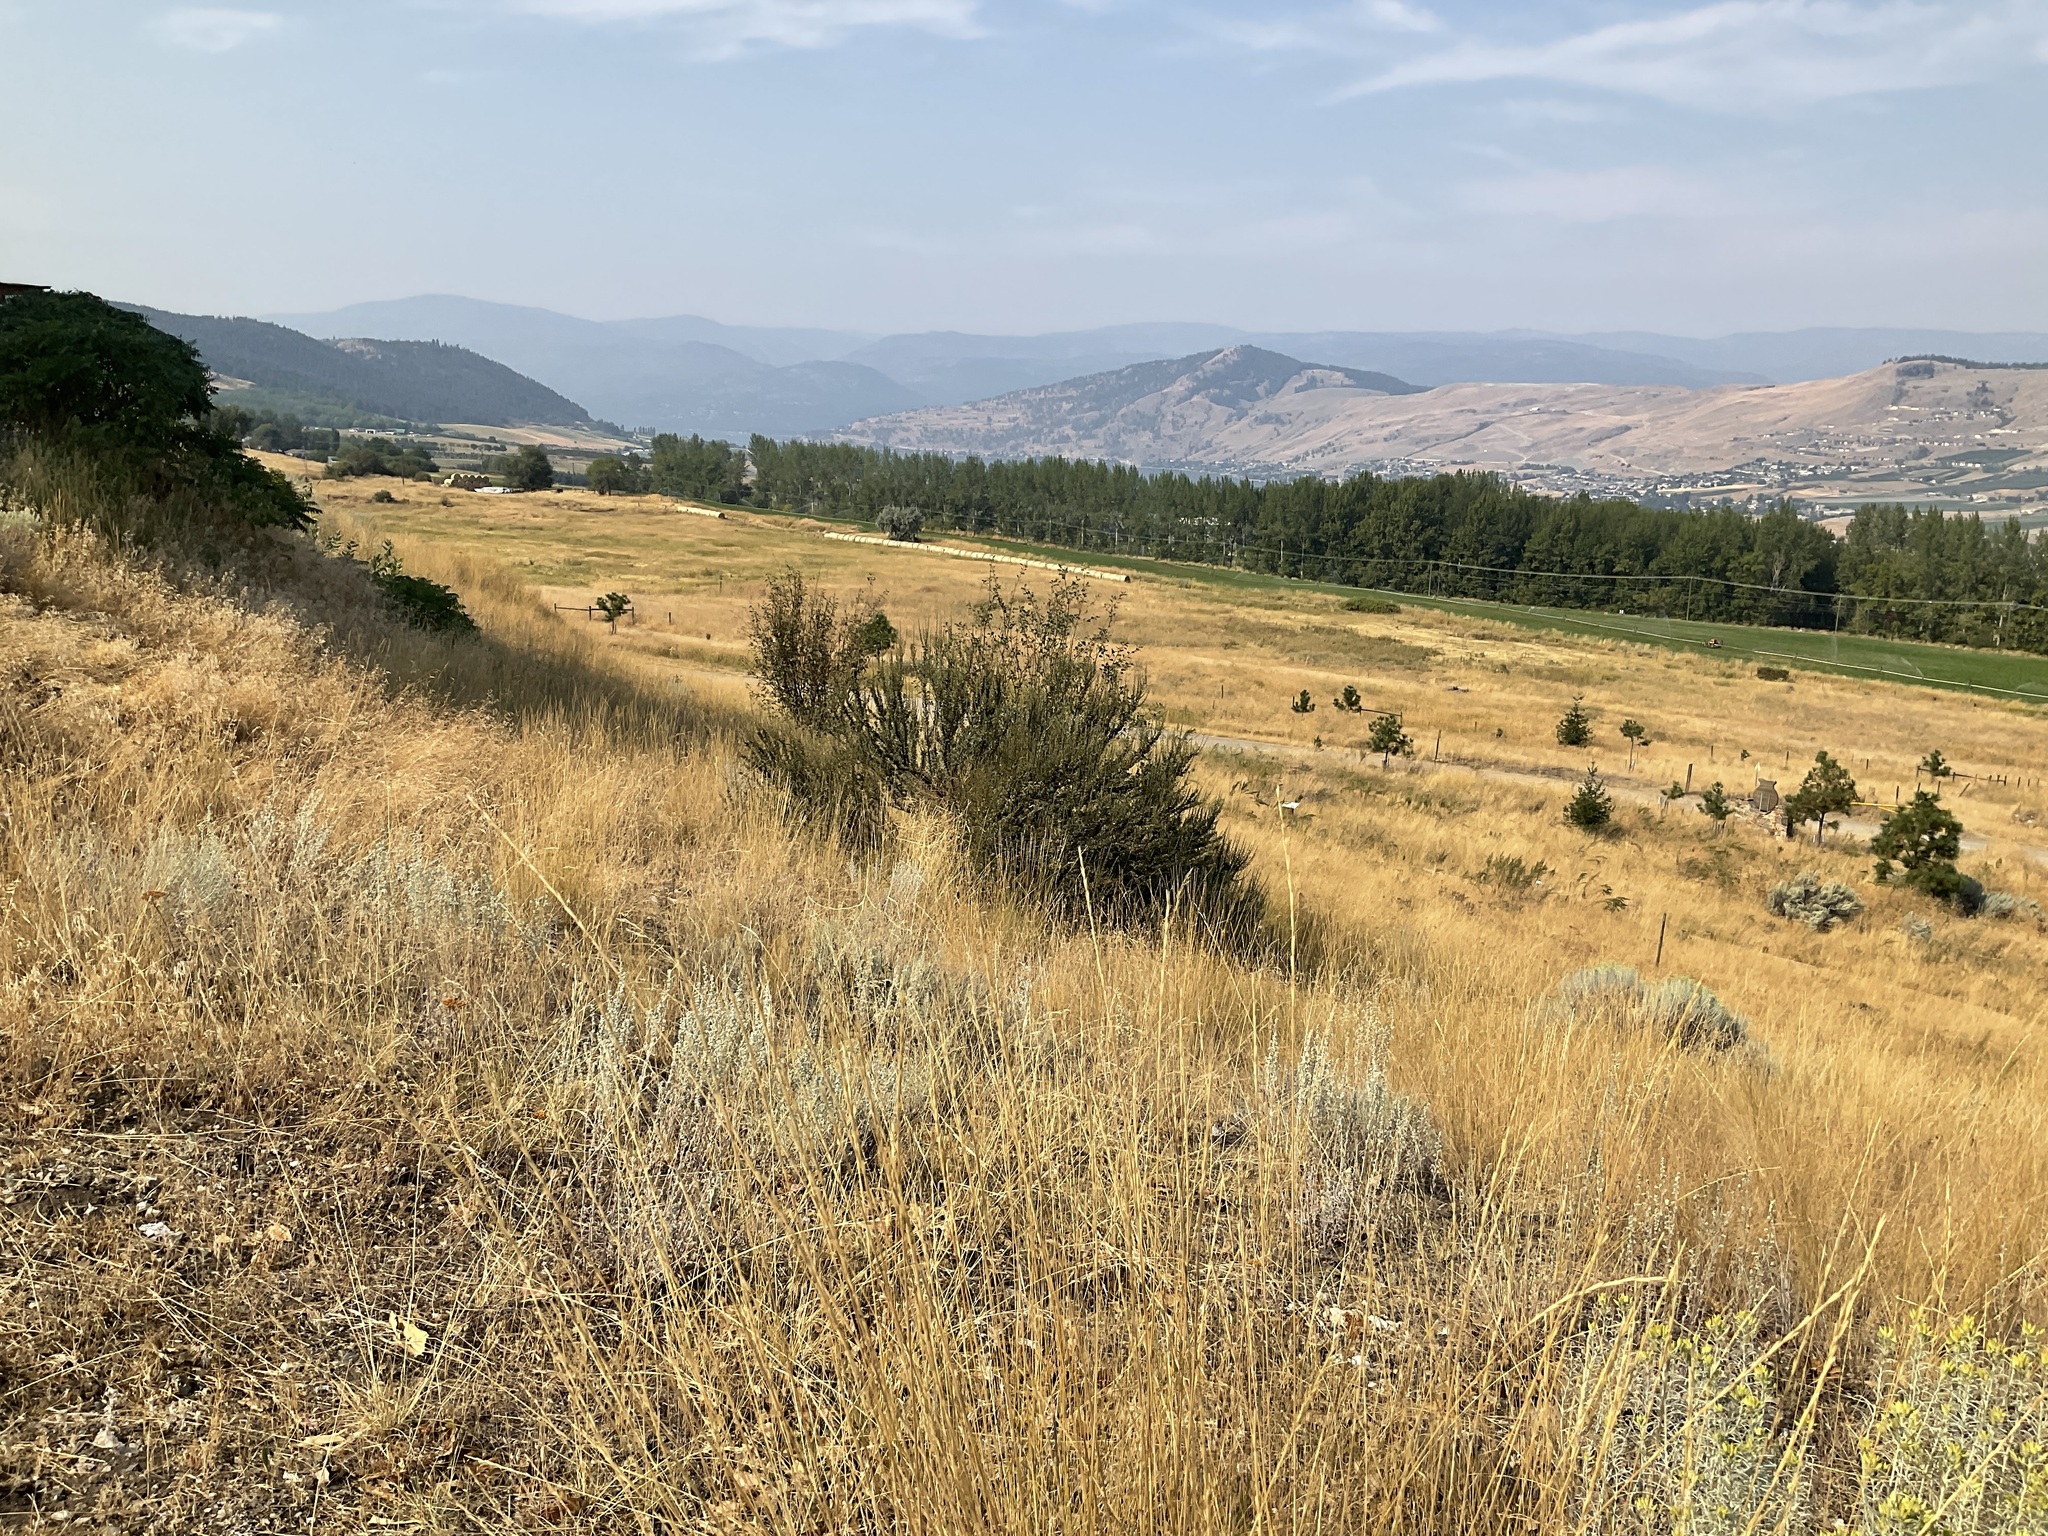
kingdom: Plantae
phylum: Tracheophyta
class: Magnoliopsida
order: Rosales
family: Rosaceae
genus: Purshia
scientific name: Purshia tridentata
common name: Antelope bitterbrush
